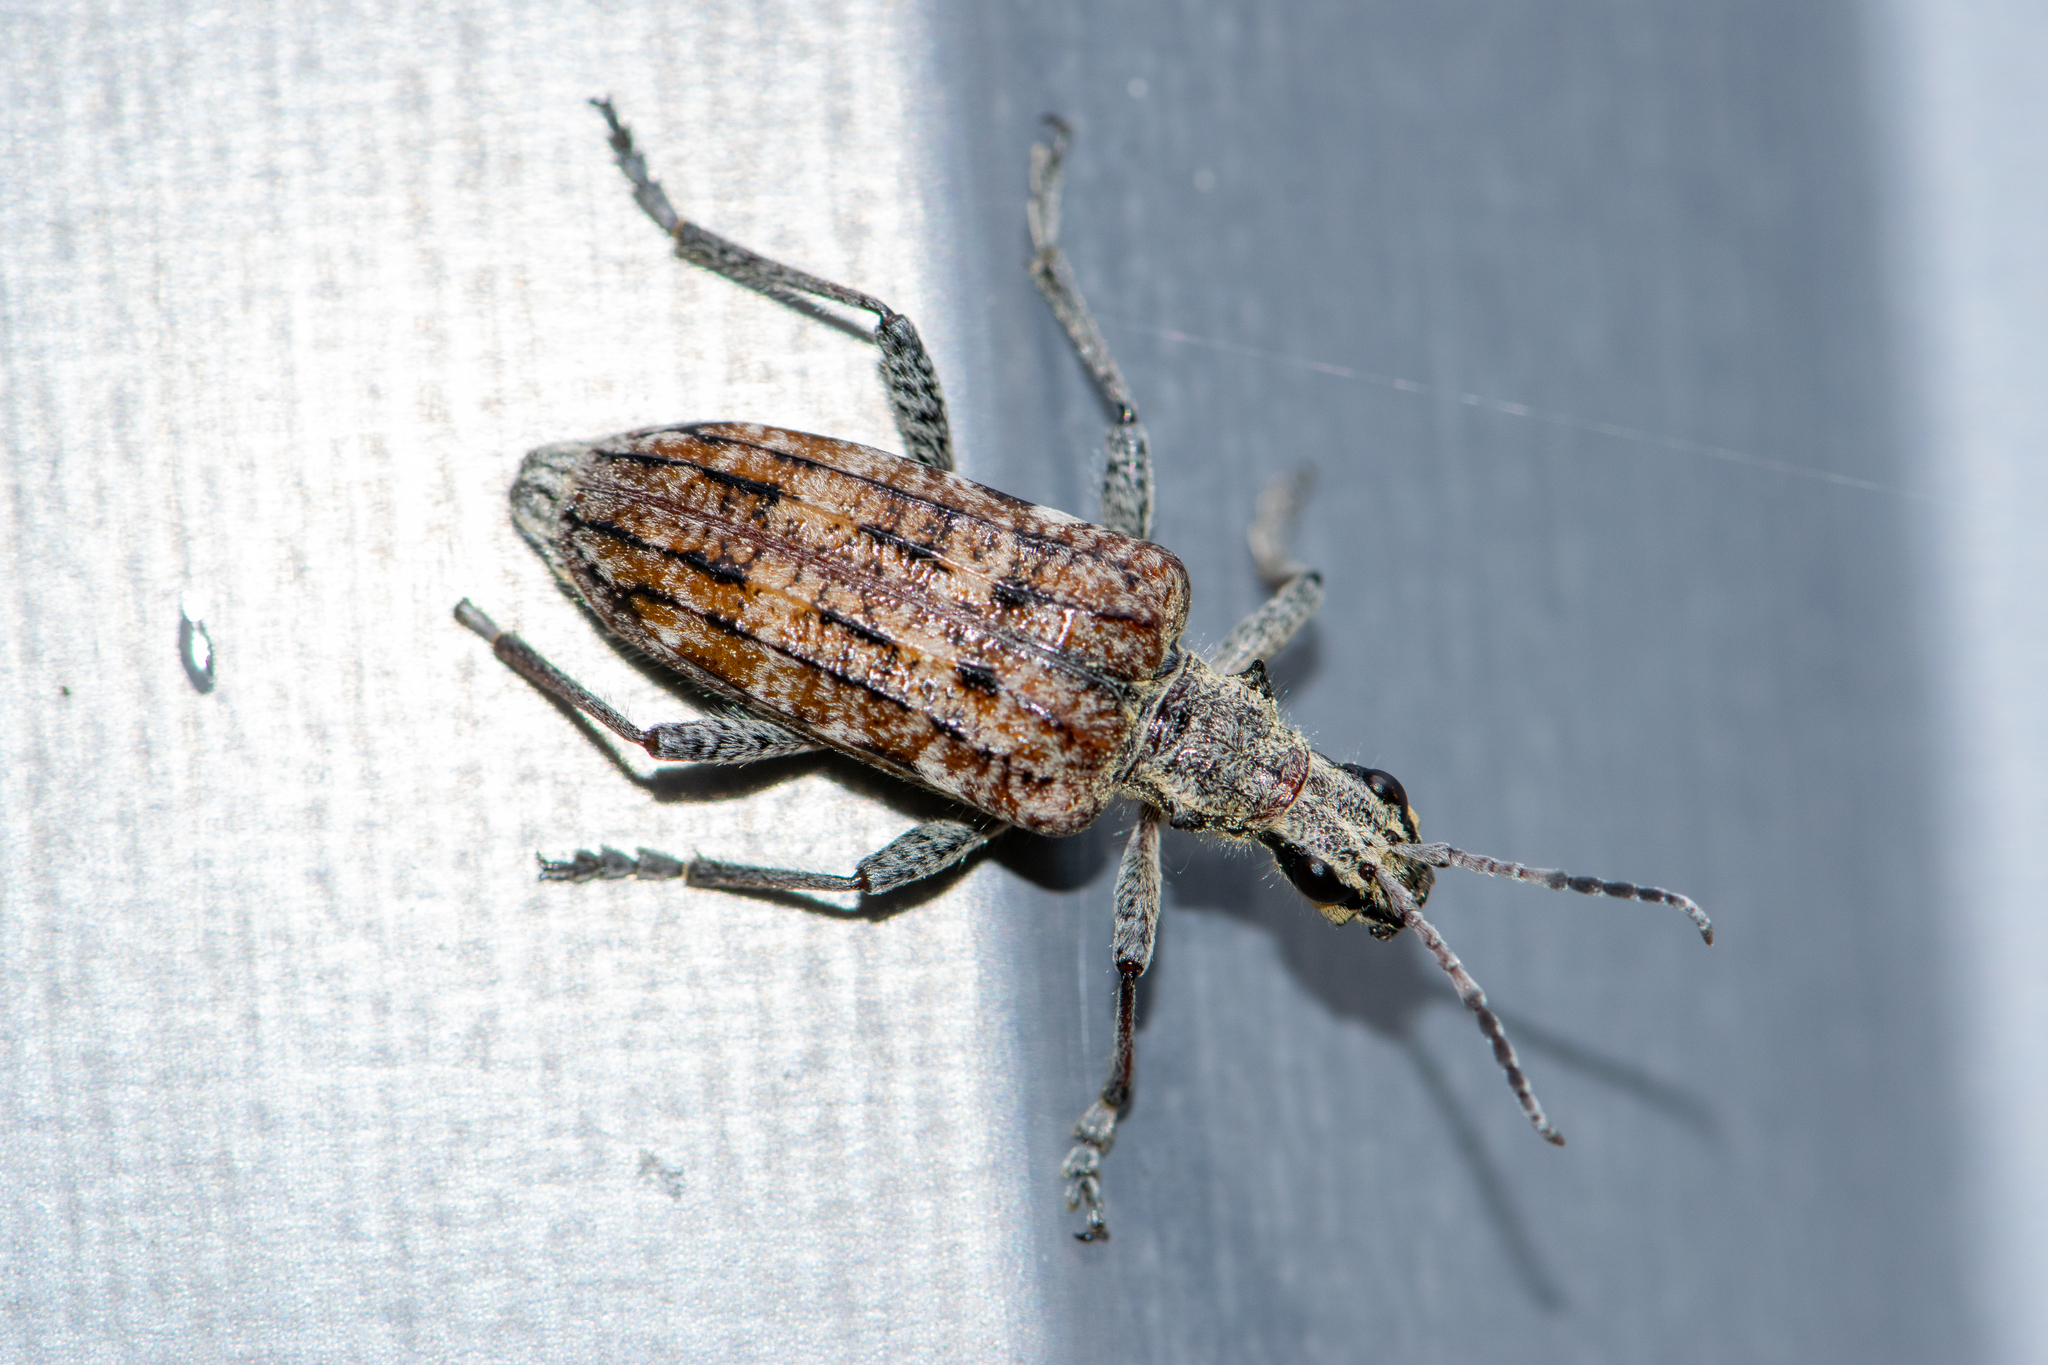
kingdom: Animalia
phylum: Arthropoda
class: Insecta
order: Coleoptera
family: Cerambycidae
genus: Rhagium
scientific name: Rhagium inquisitor
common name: Ribbed pine borer
